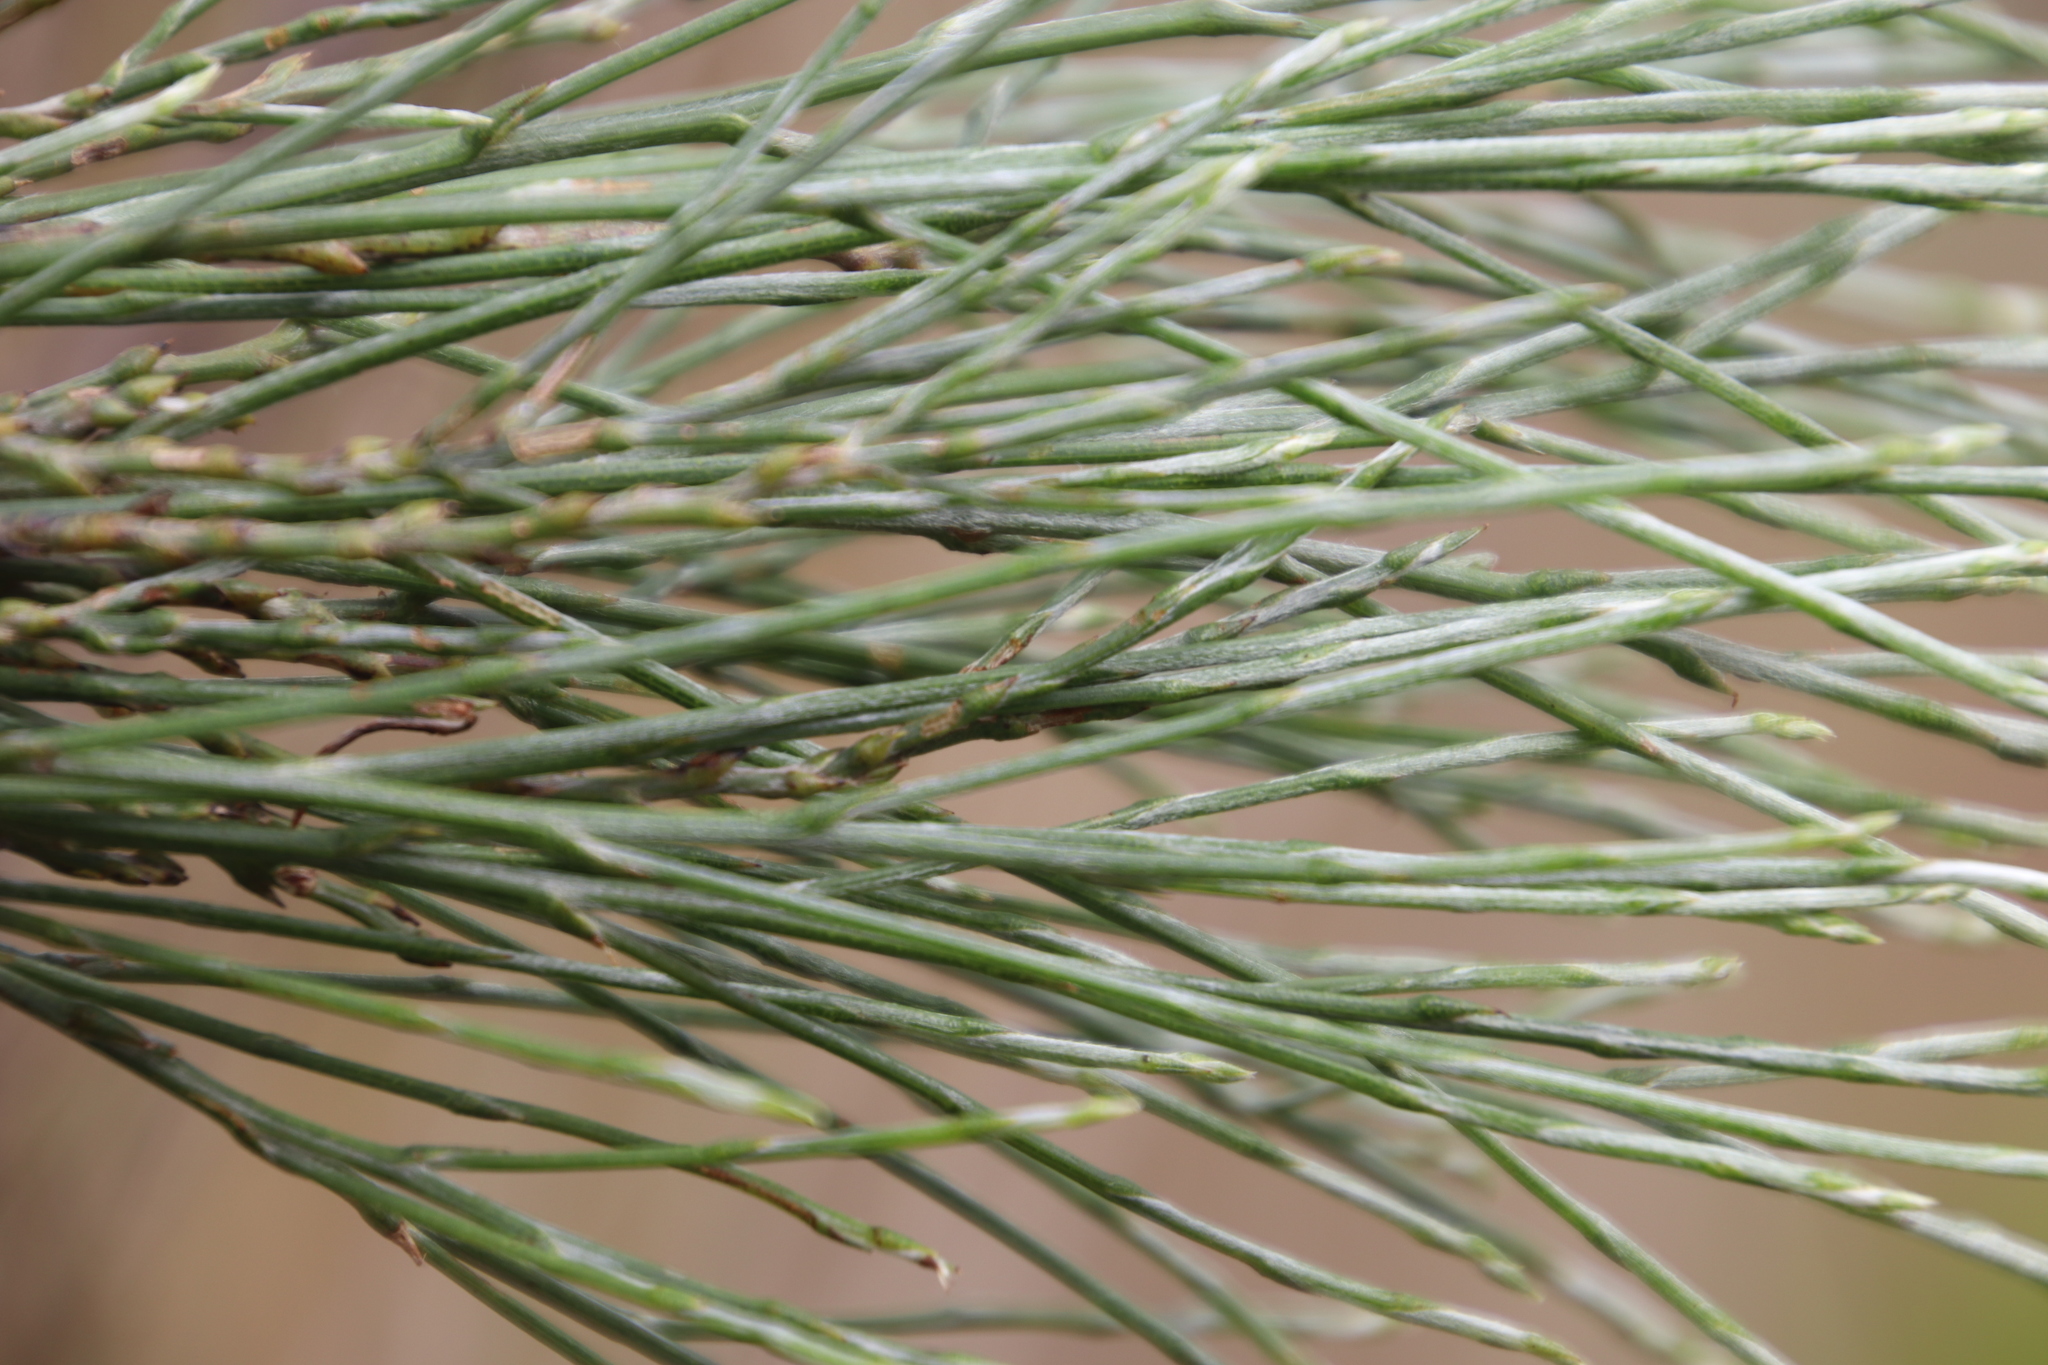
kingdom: Plantae
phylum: Tracheophyta
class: Magnoliopsida
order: Fabales
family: Fabaceae
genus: Psoralea
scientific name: Psoralea pullata
